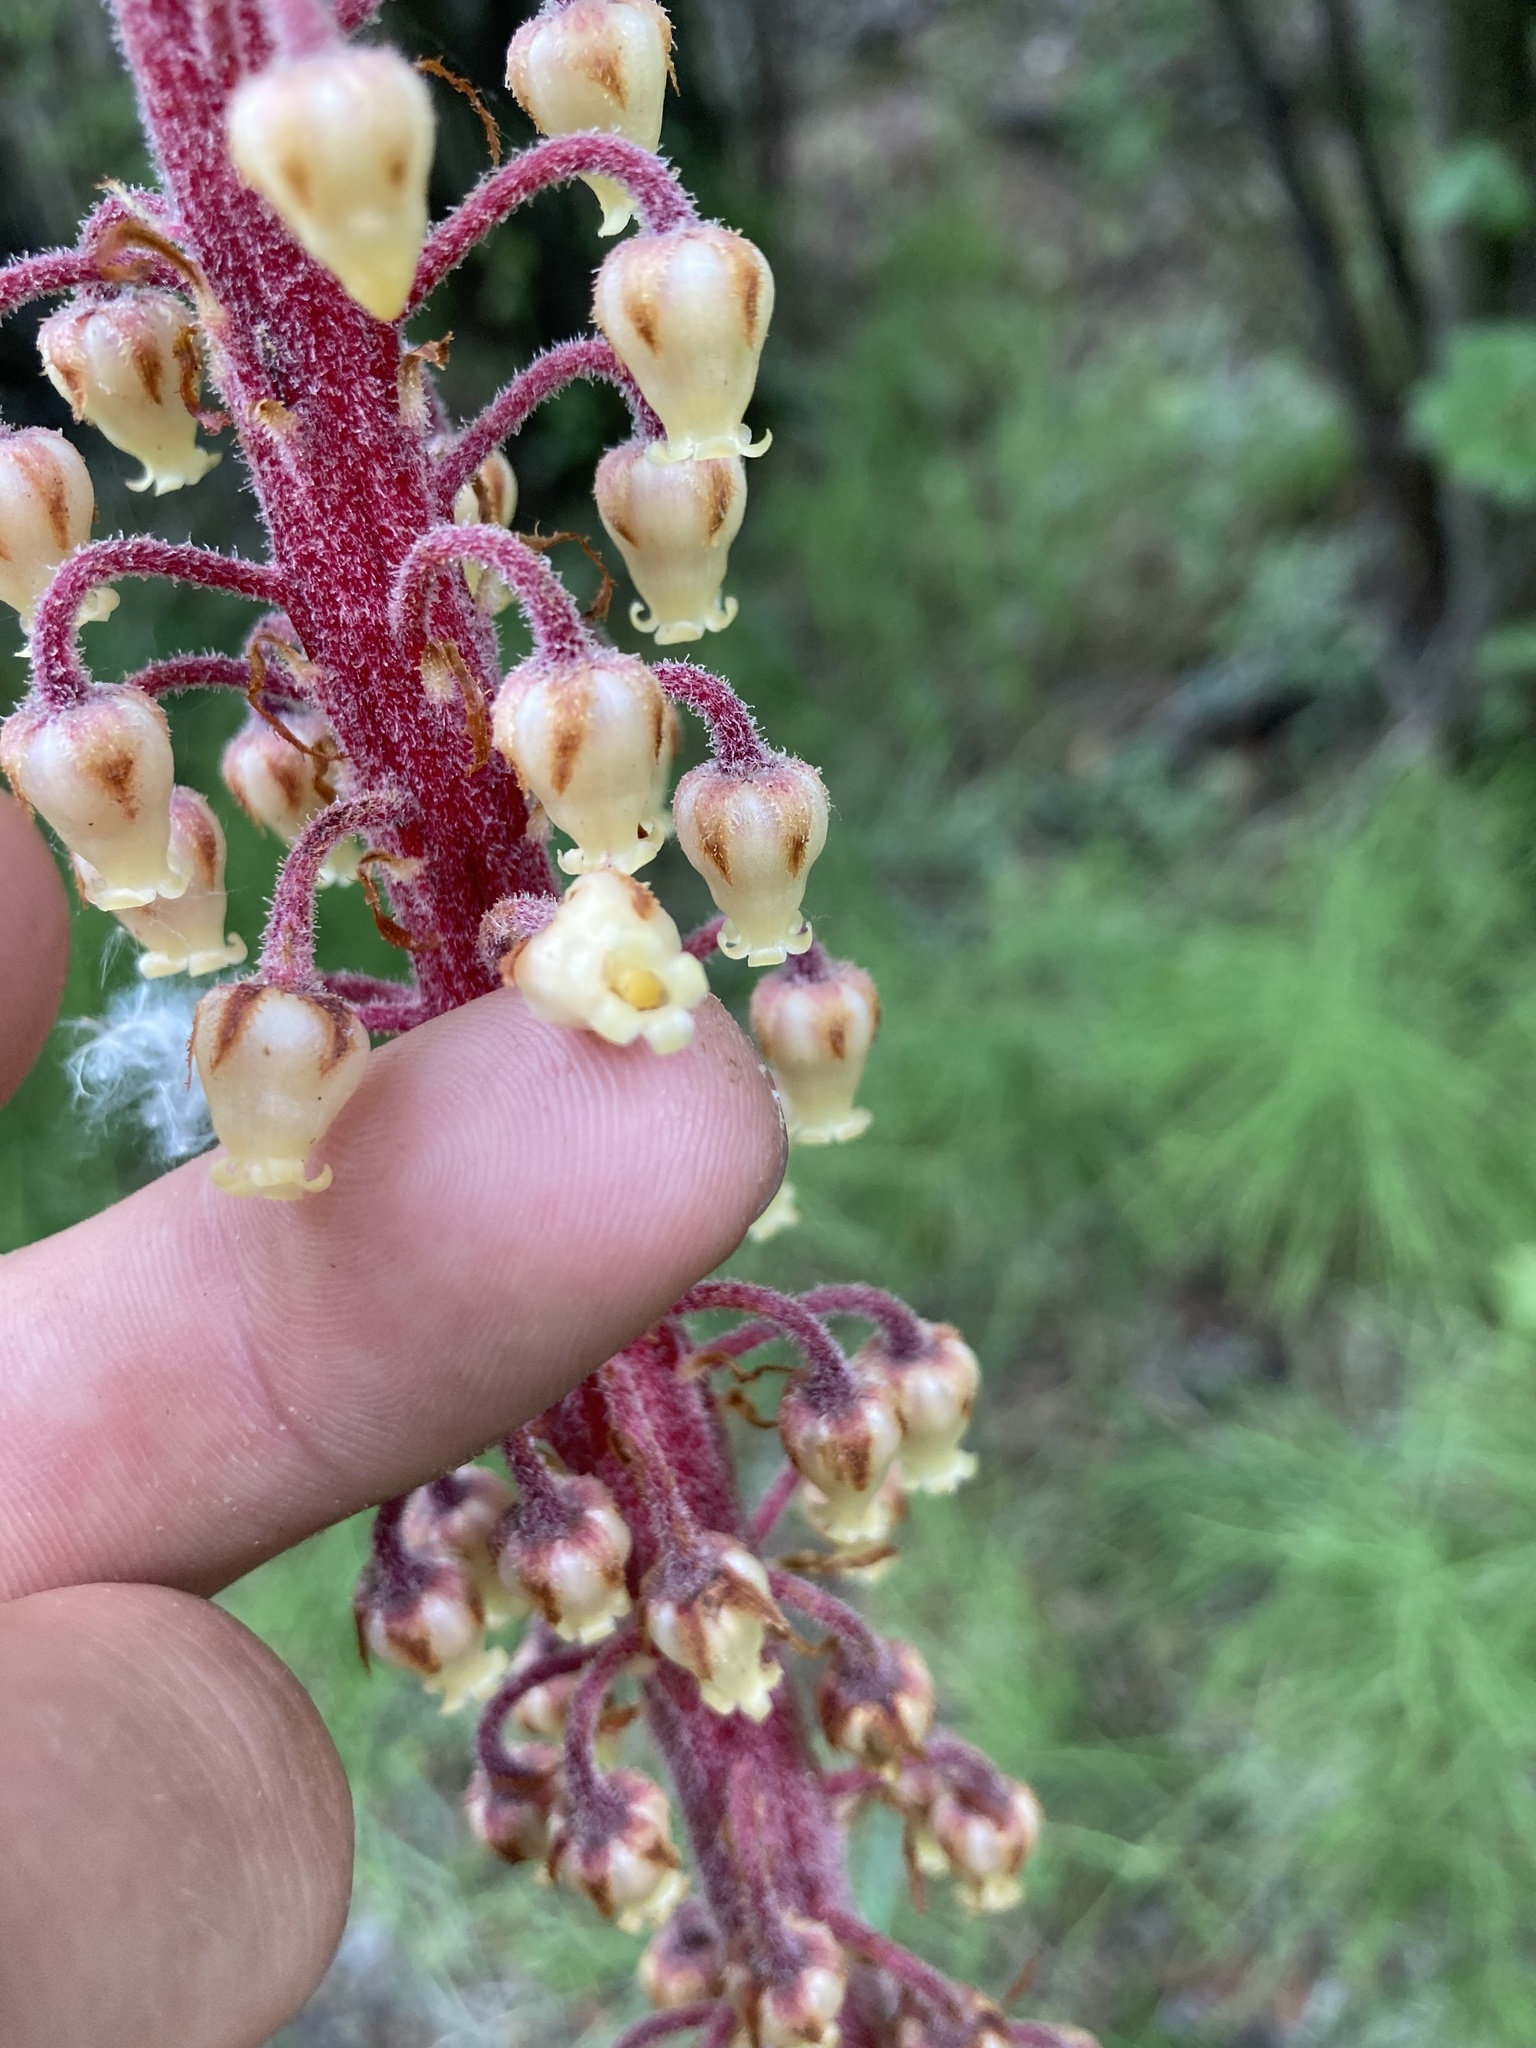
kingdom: Plantae
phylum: Tracheophyta
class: Magnoliopsida
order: Ericales
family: Ericaceae
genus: Pterospora
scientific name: Pterospora andromedea
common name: Giant bird's-nest
